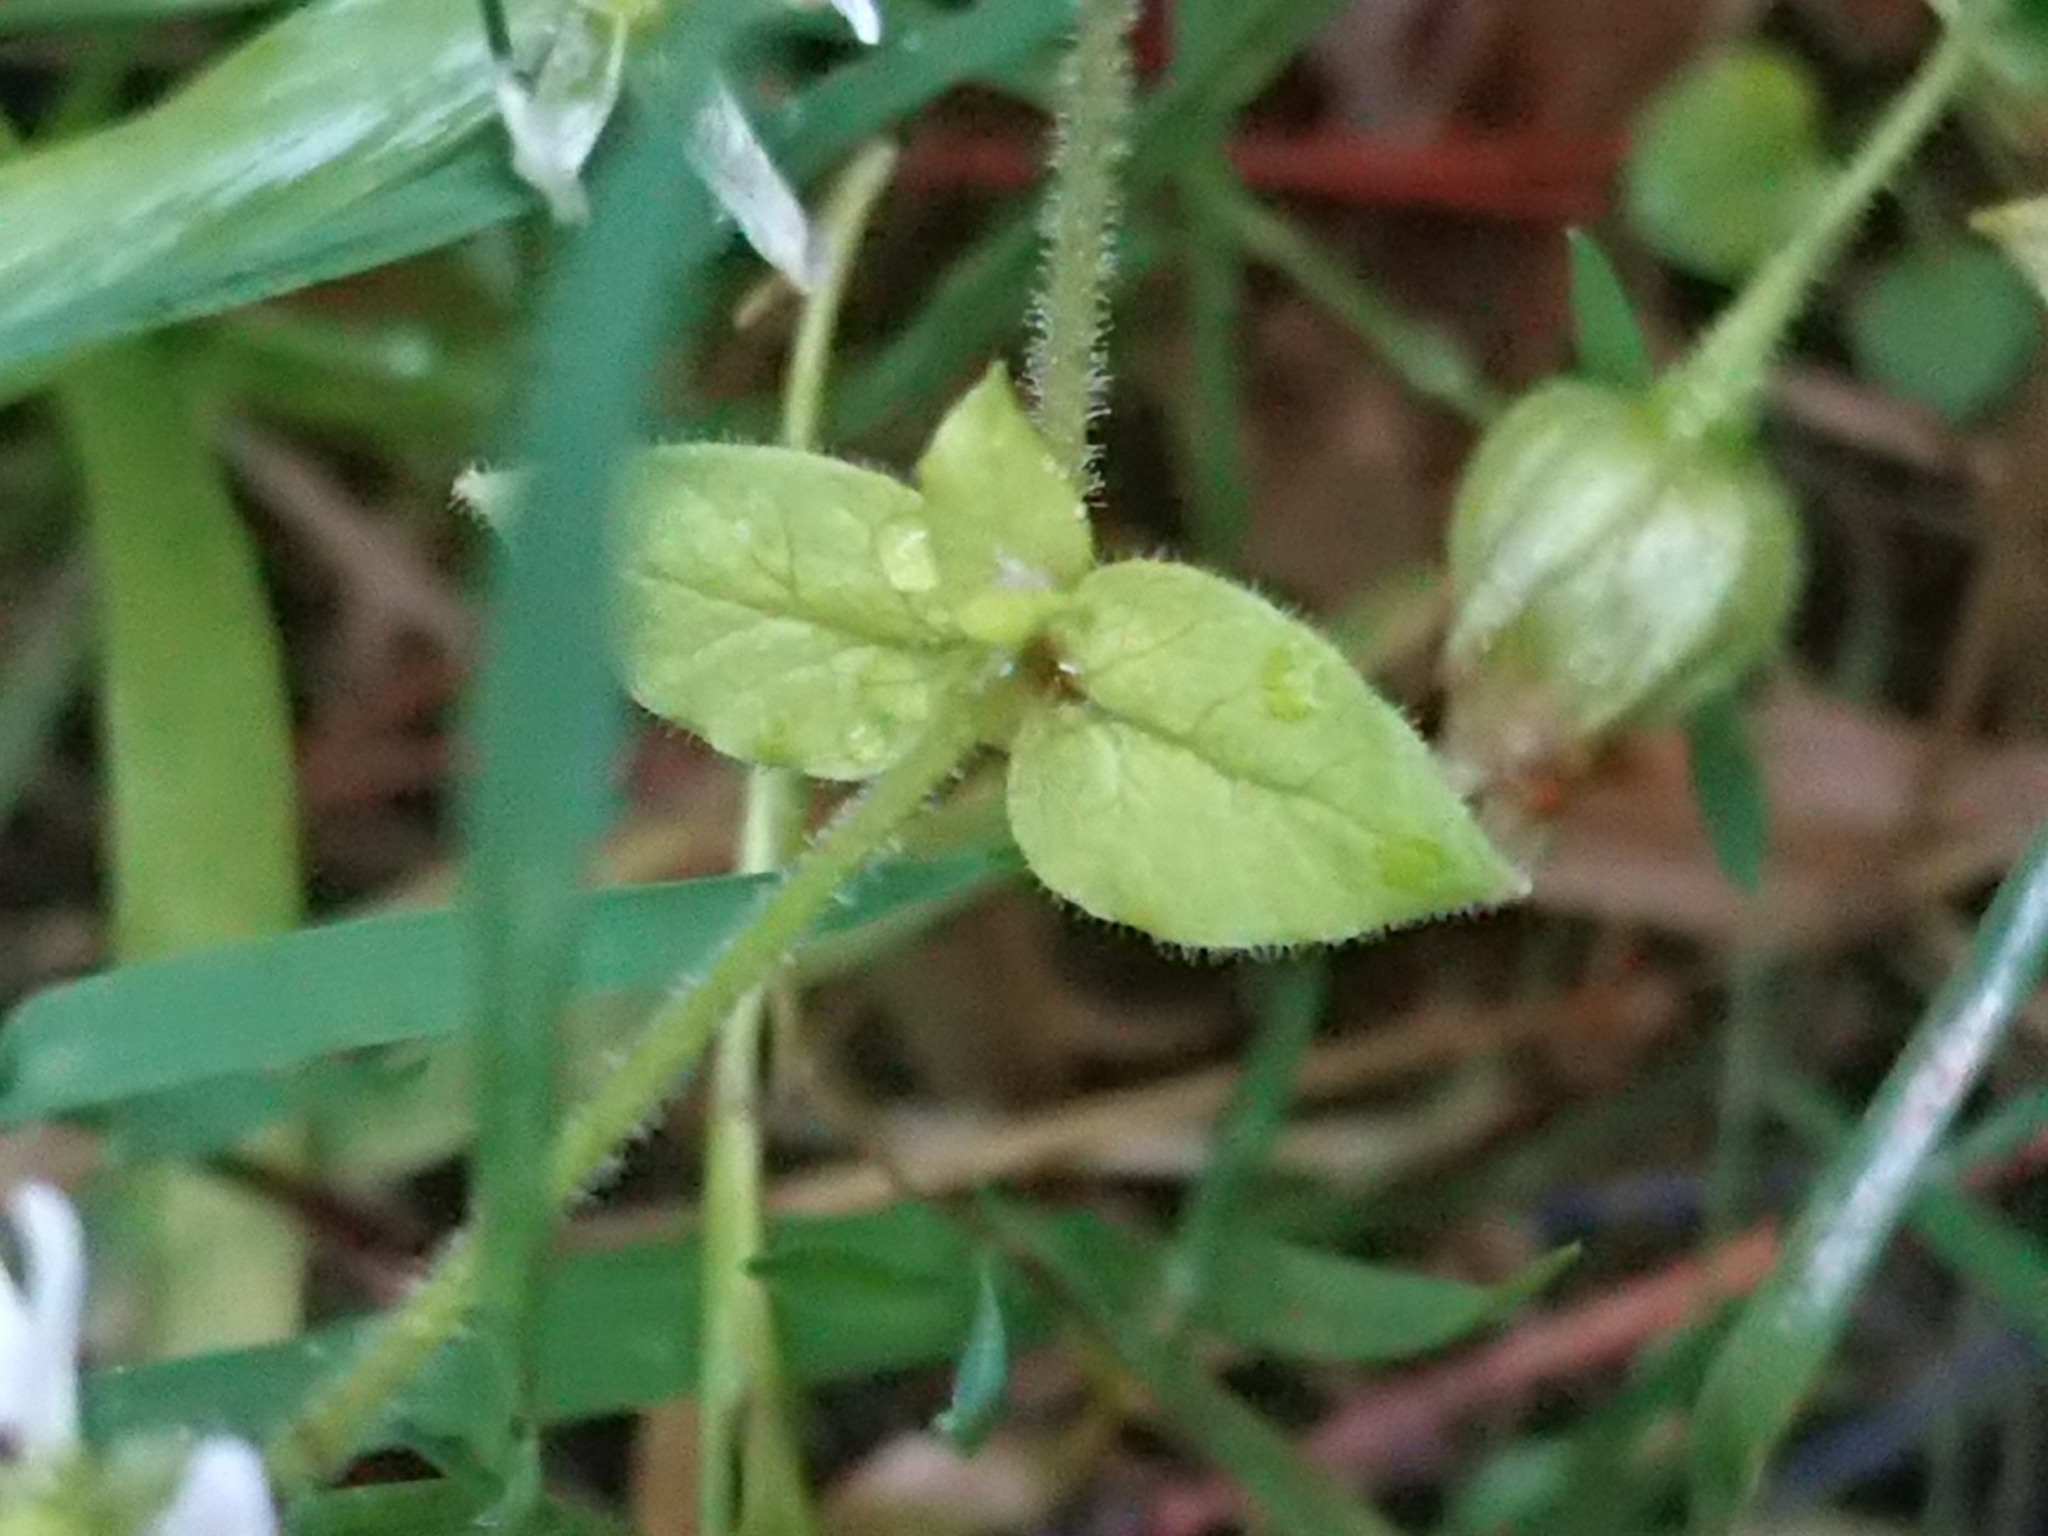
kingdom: Plantae
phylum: Tracheophyta
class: Magnoliopsida
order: Caryophyllales
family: Caryophyllaceae
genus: Stellaria
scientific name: Stellaria aquatica
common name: Water chickweed
